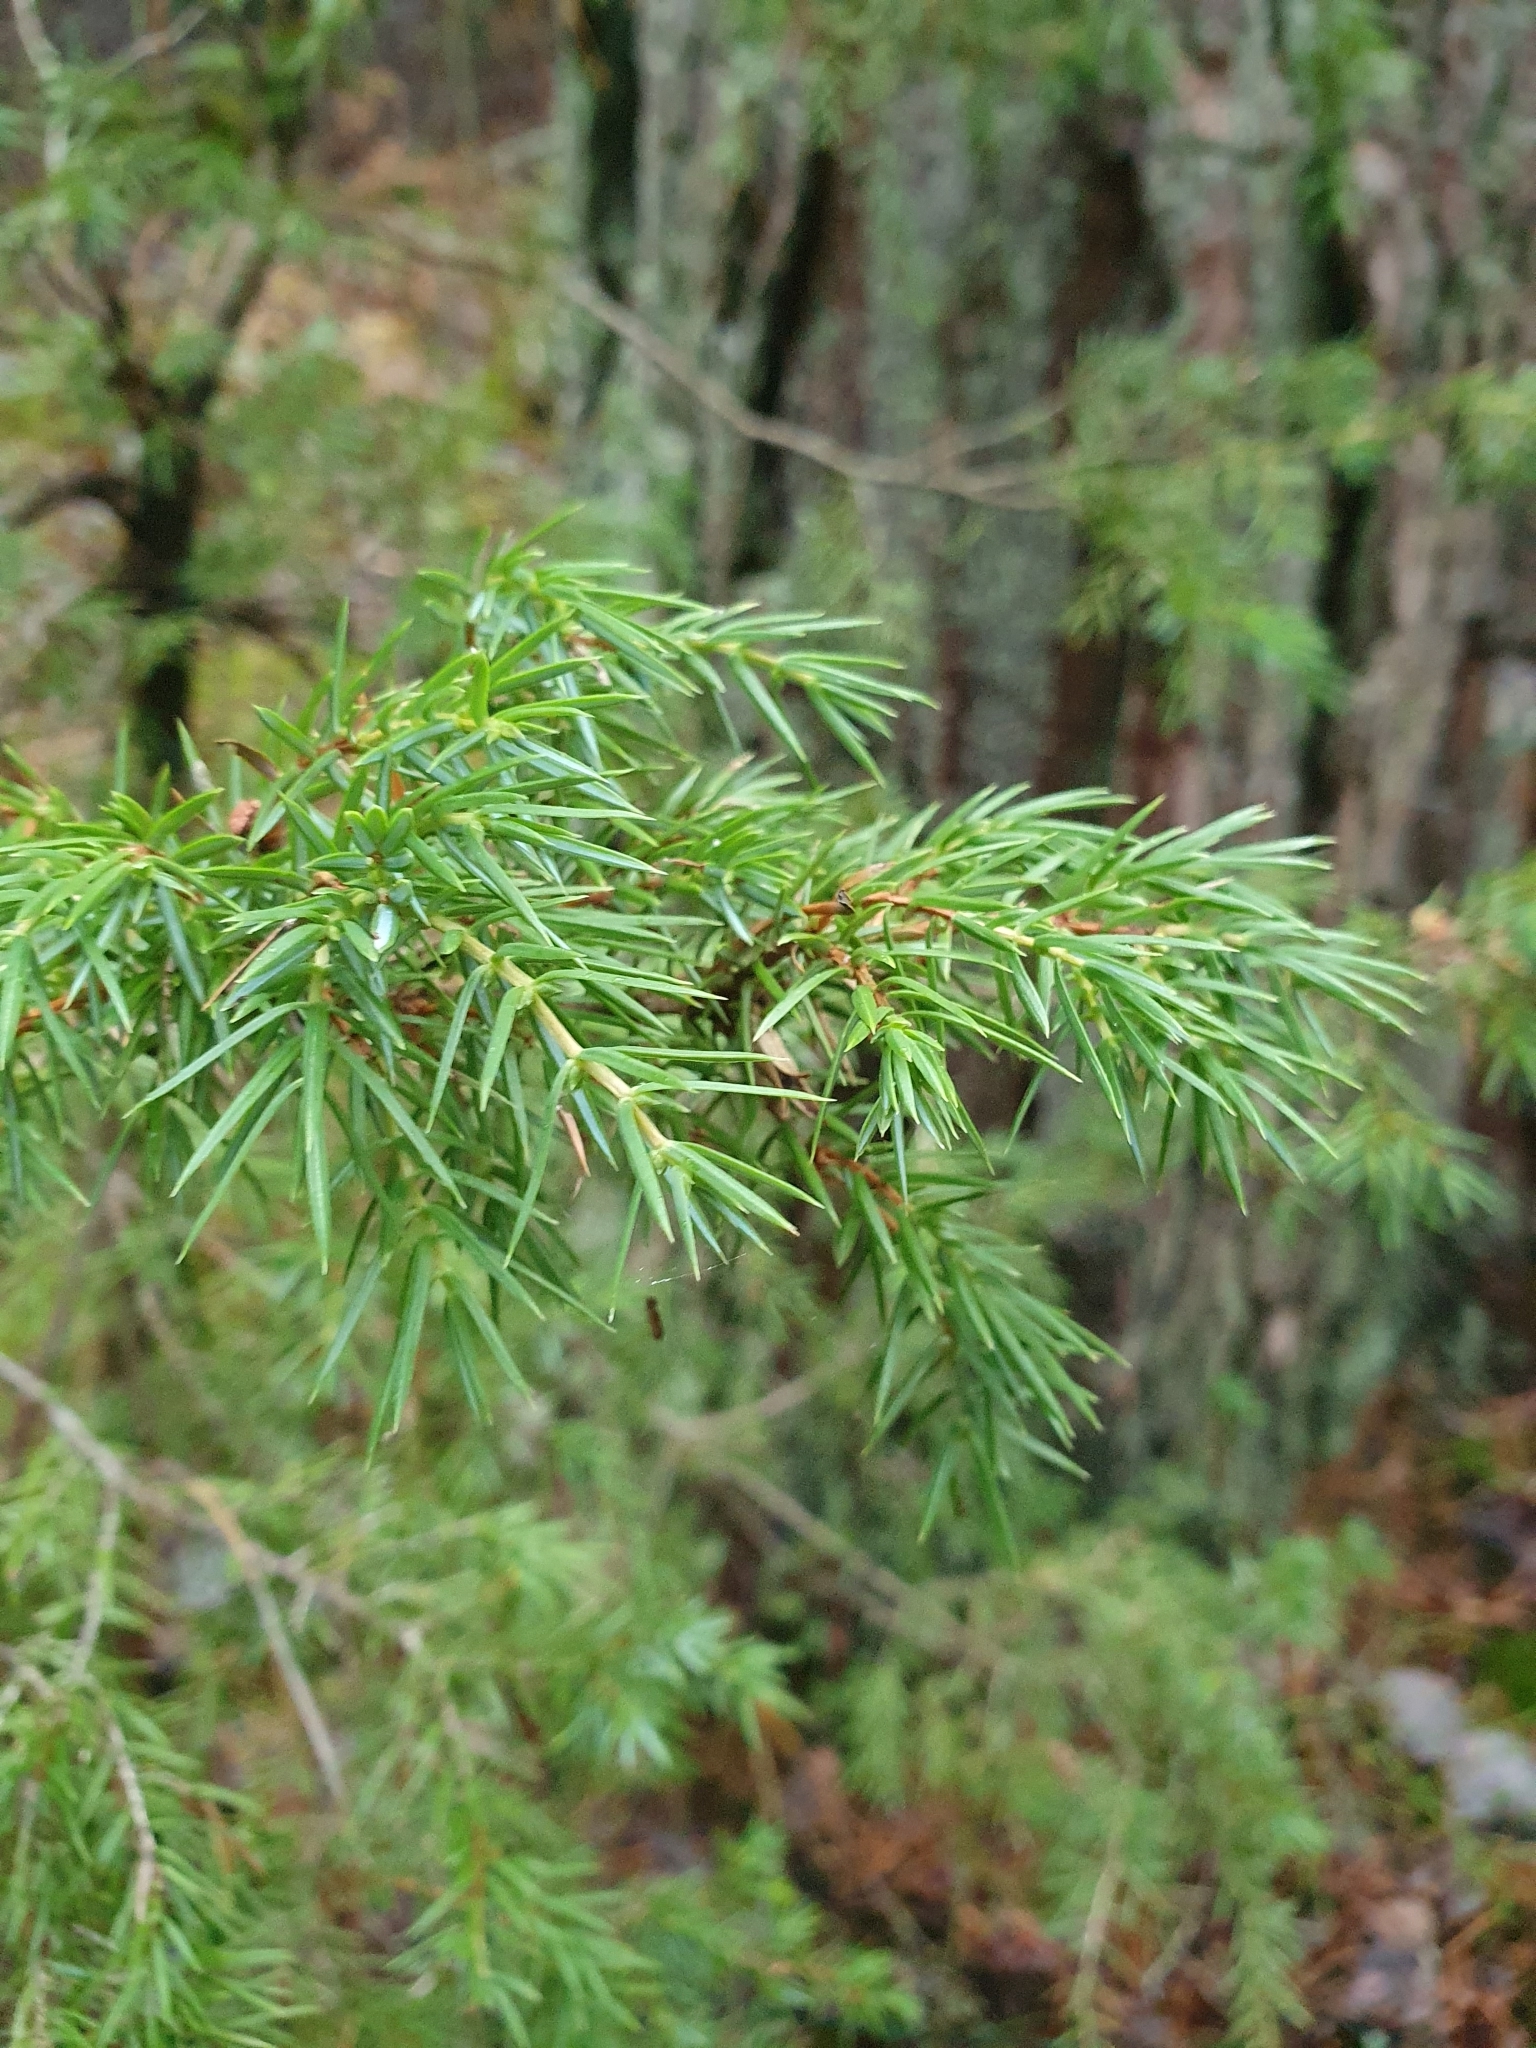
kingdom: Plantae
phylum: Tracheophyta
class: Pinopsida
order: Pinales
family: Cupressaceae
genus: Juniperus
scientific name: Juniperus communis
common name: Common juniper
